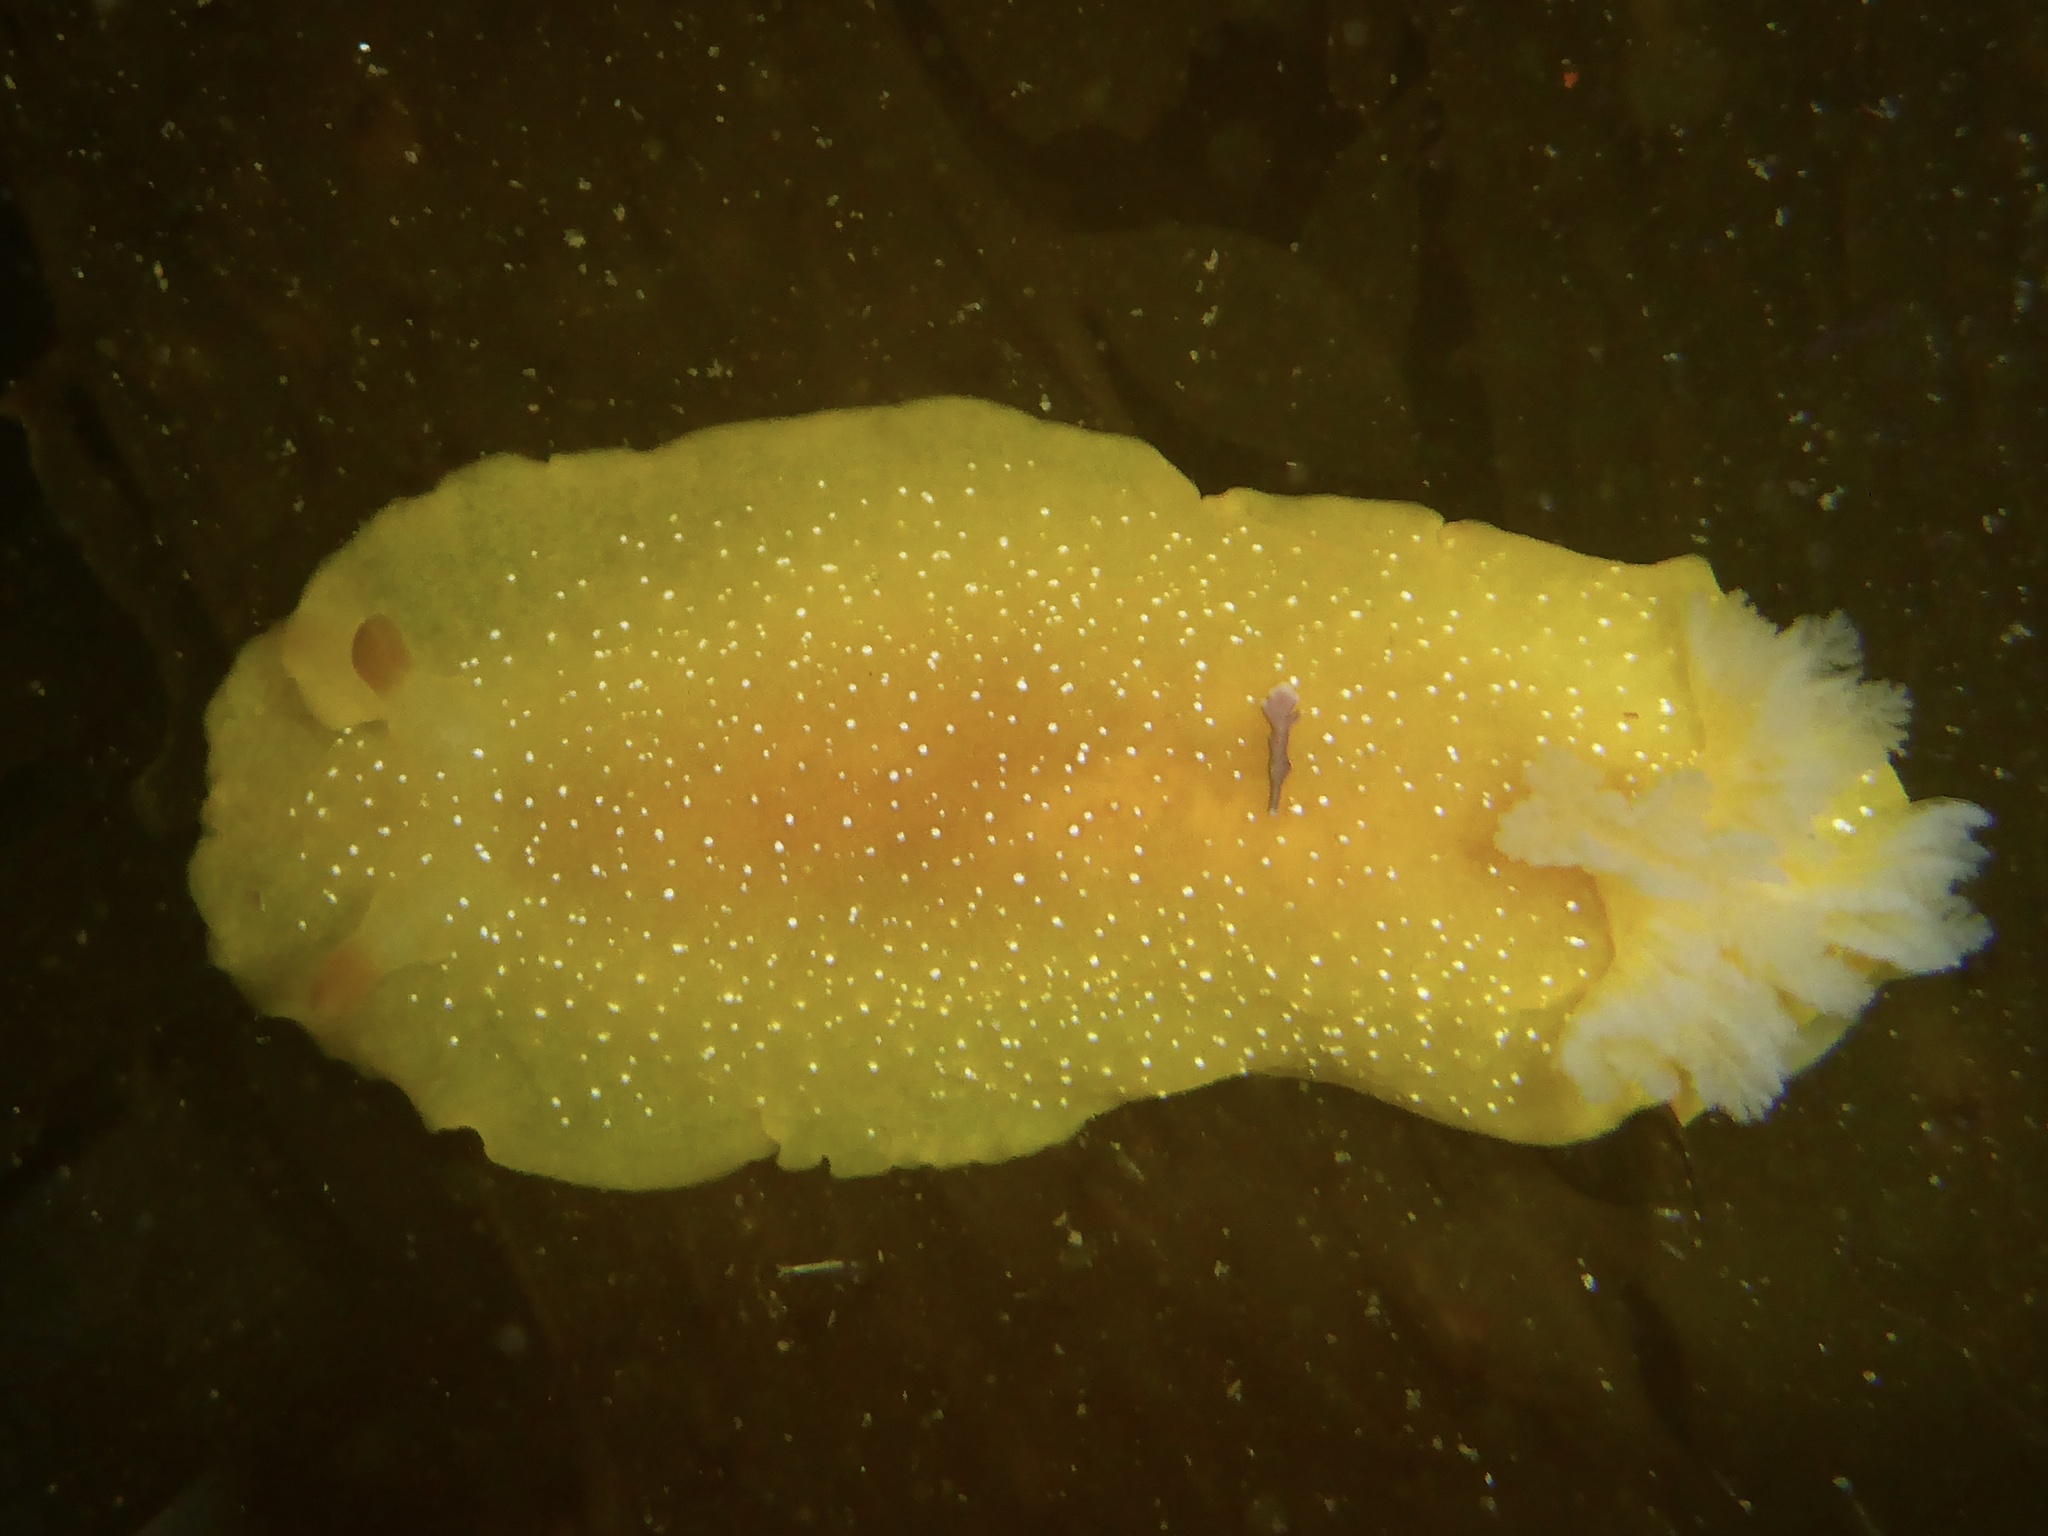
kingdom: Animalia
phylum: Mollusca
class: Gastropoda
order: Nudibranchia
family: Dendrodorididae
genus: Doriopsilla
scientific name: Doriopsilla fulva
